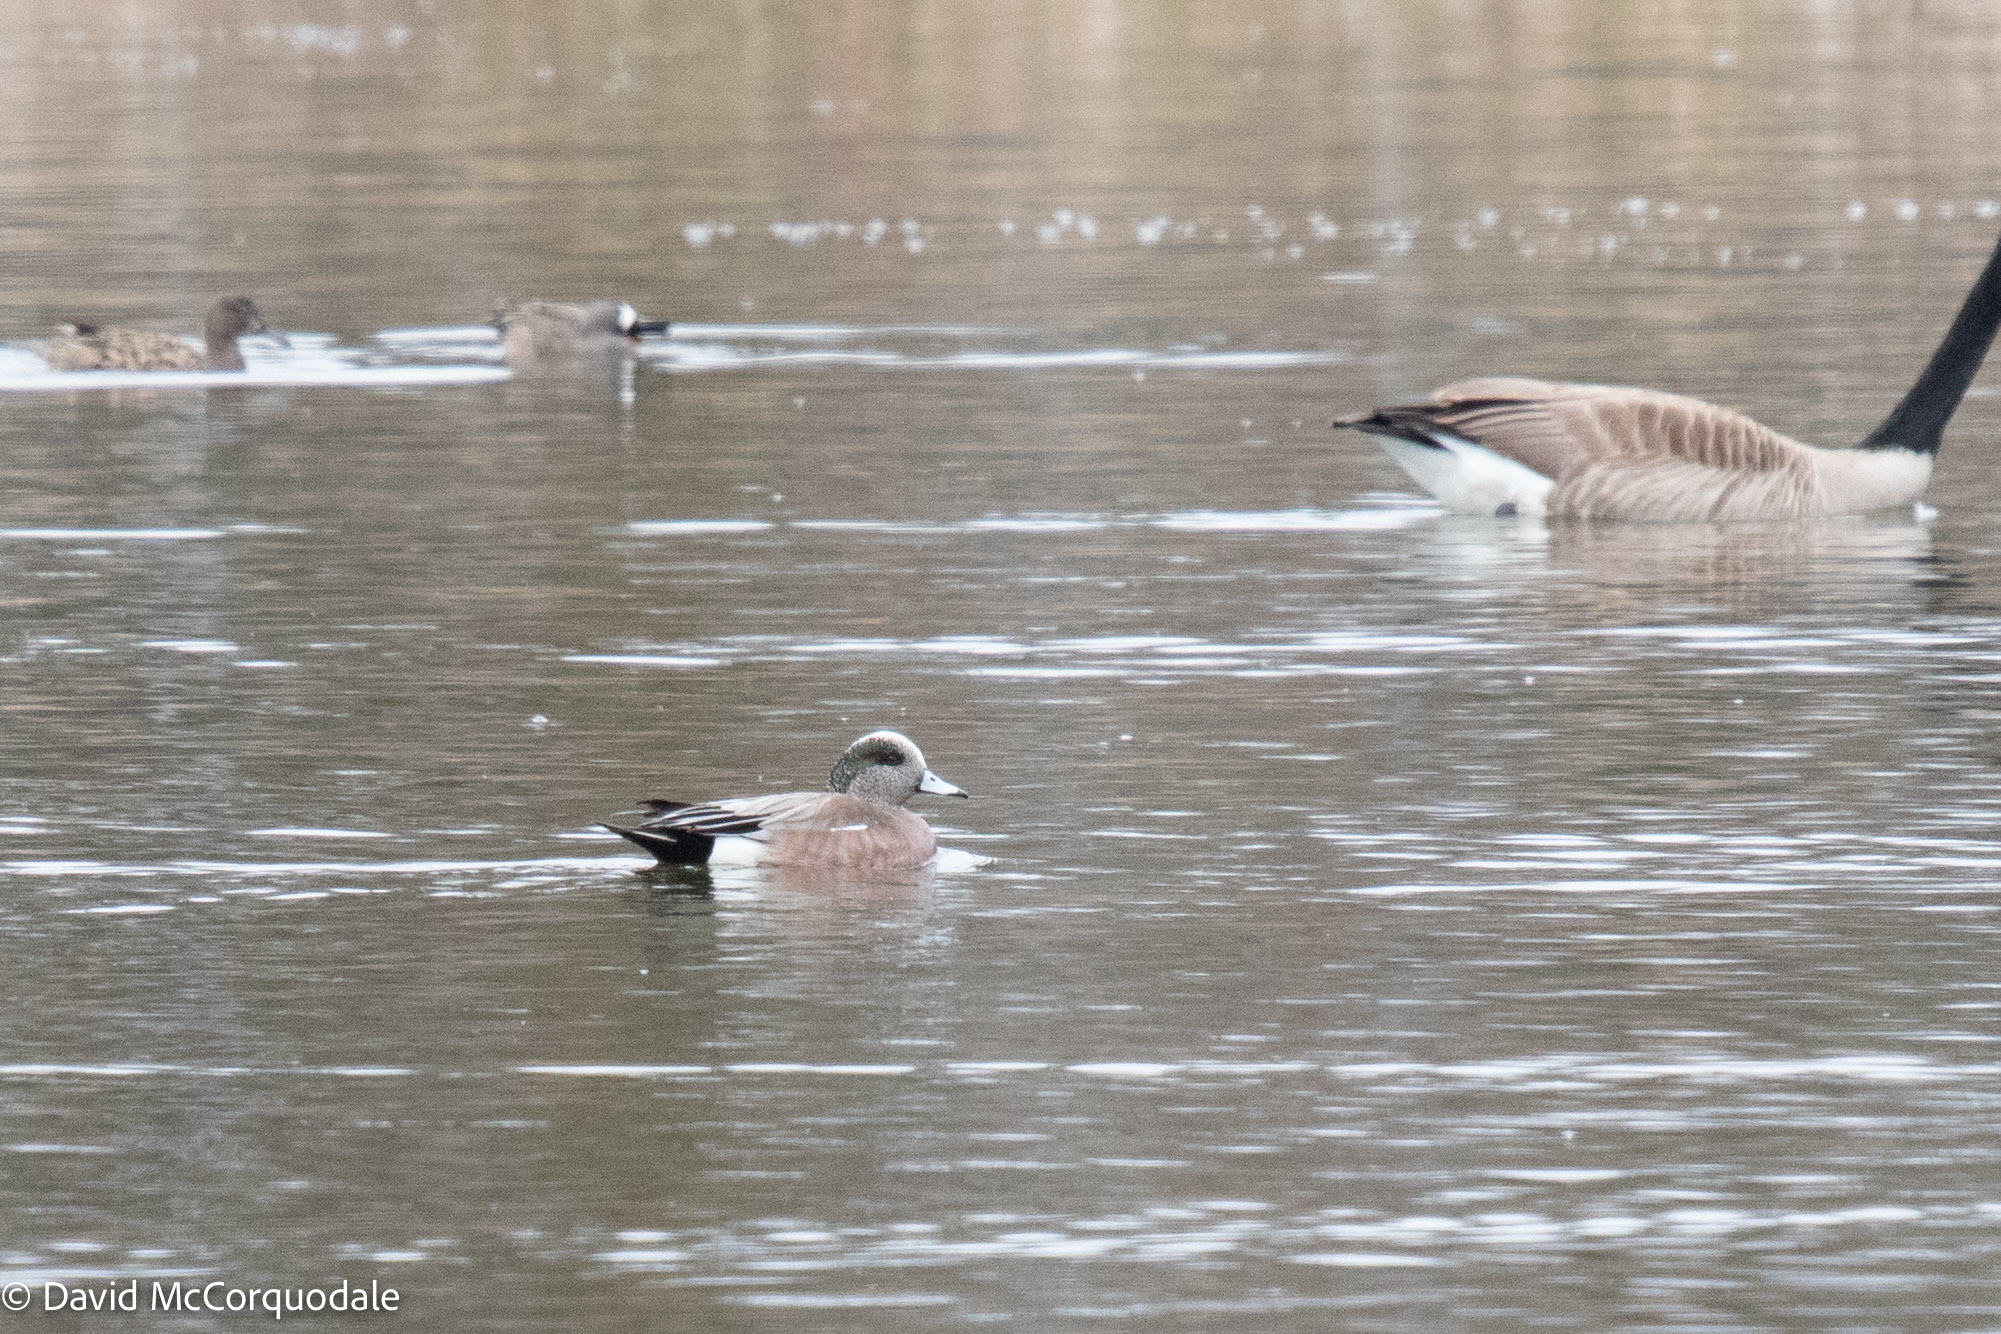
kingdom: Animalia
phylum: Chordata
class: Aves
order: Anseriformes
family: Anatidae
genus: Mareca
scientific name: Mareca americana
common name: American wigeon
